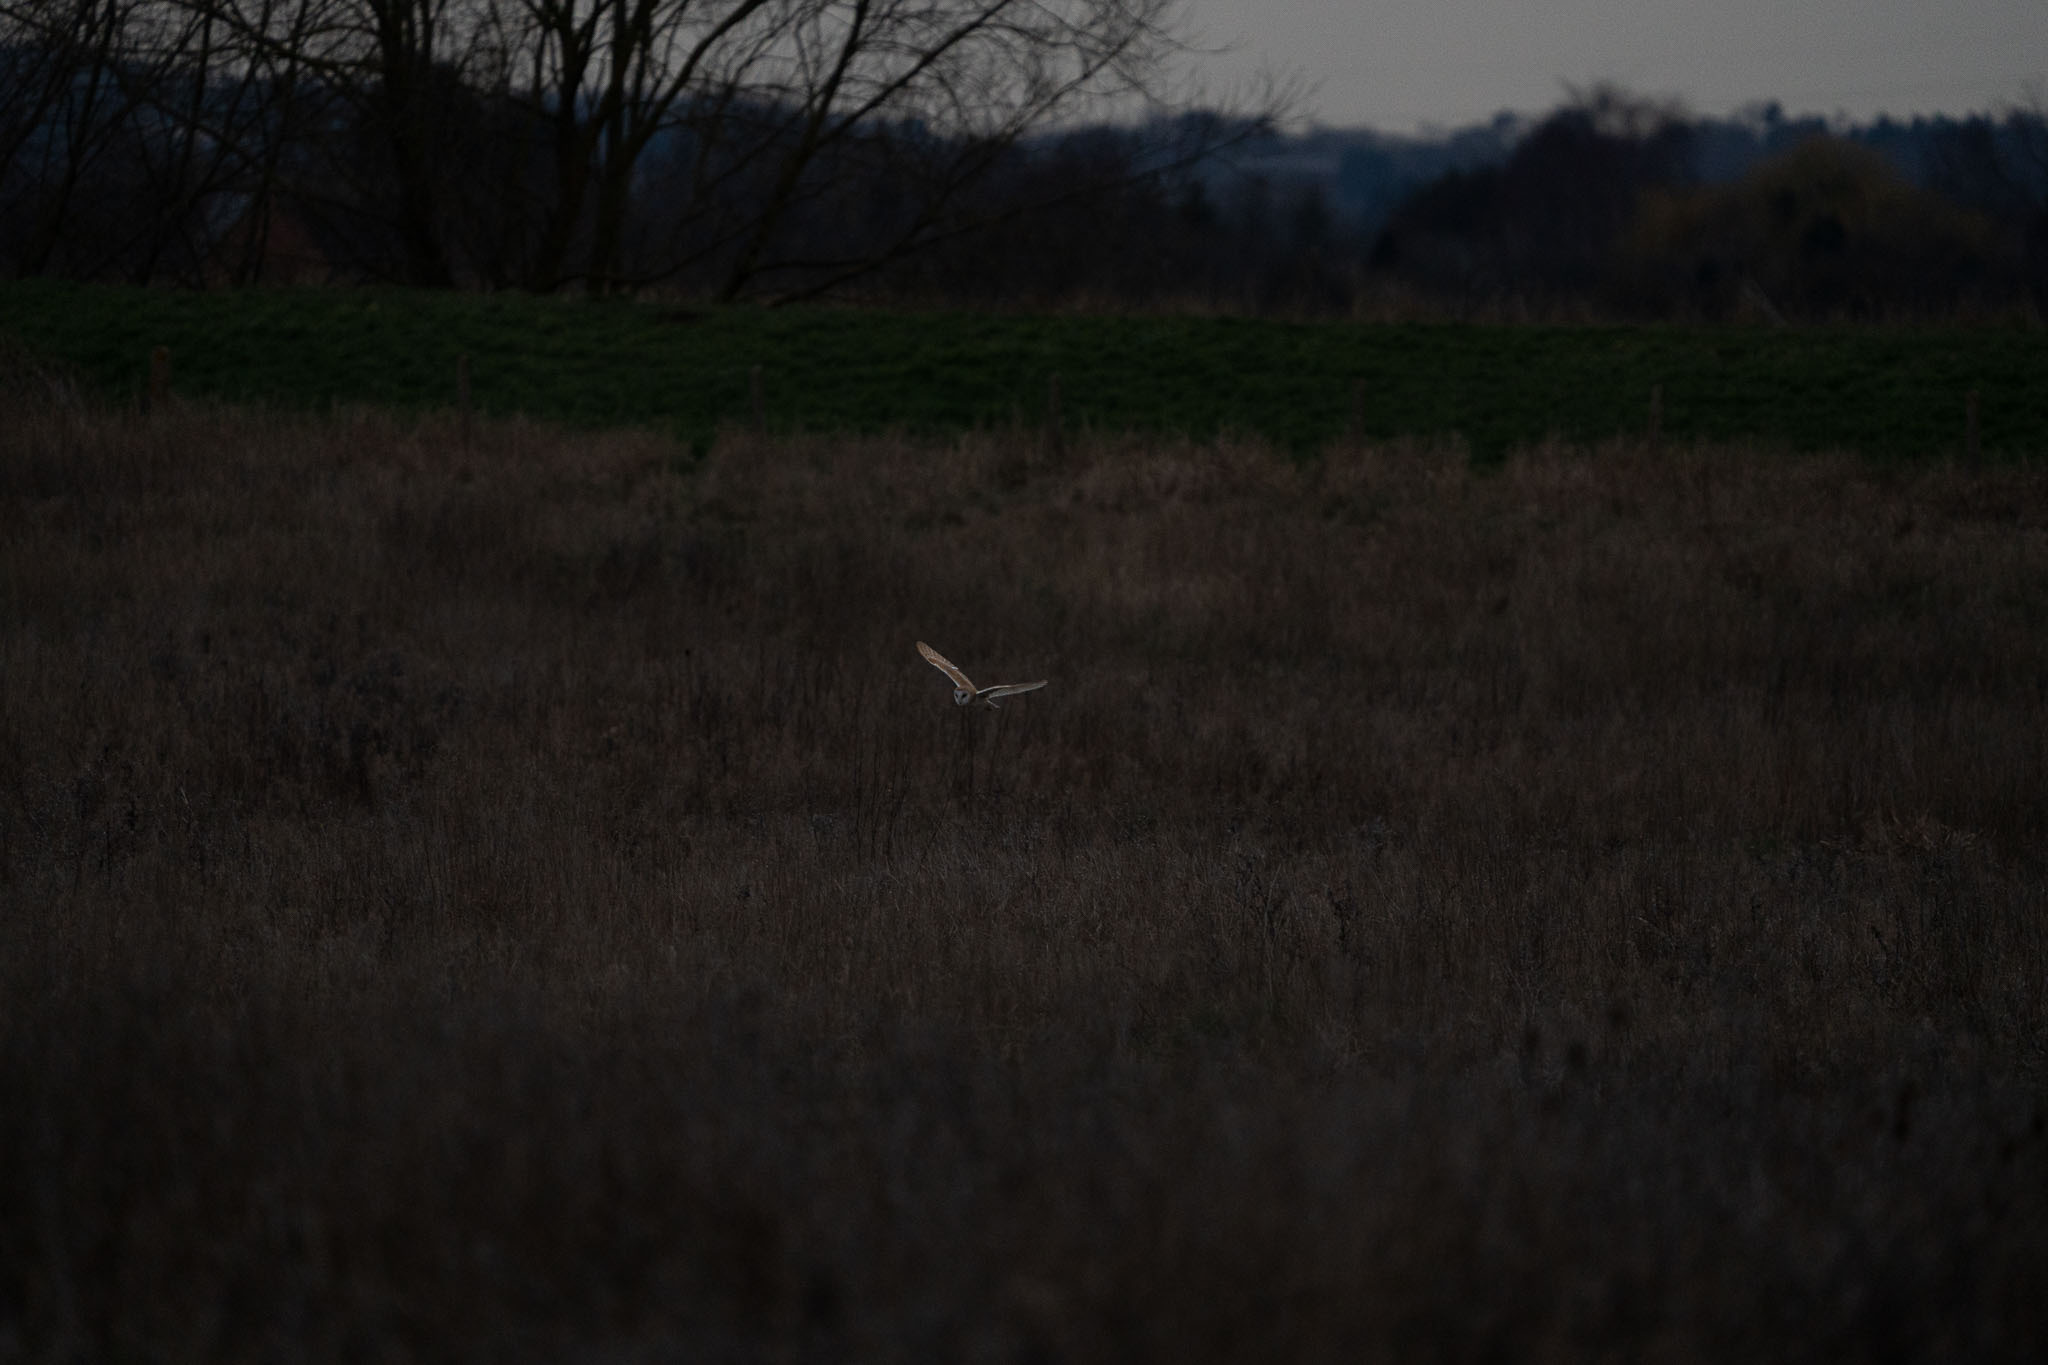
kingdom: Animalia
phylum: Chordata
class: Aves
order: Strigiformes
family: Tytonidae
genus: Tyto
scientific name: Tyto alba
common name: Barn owl
